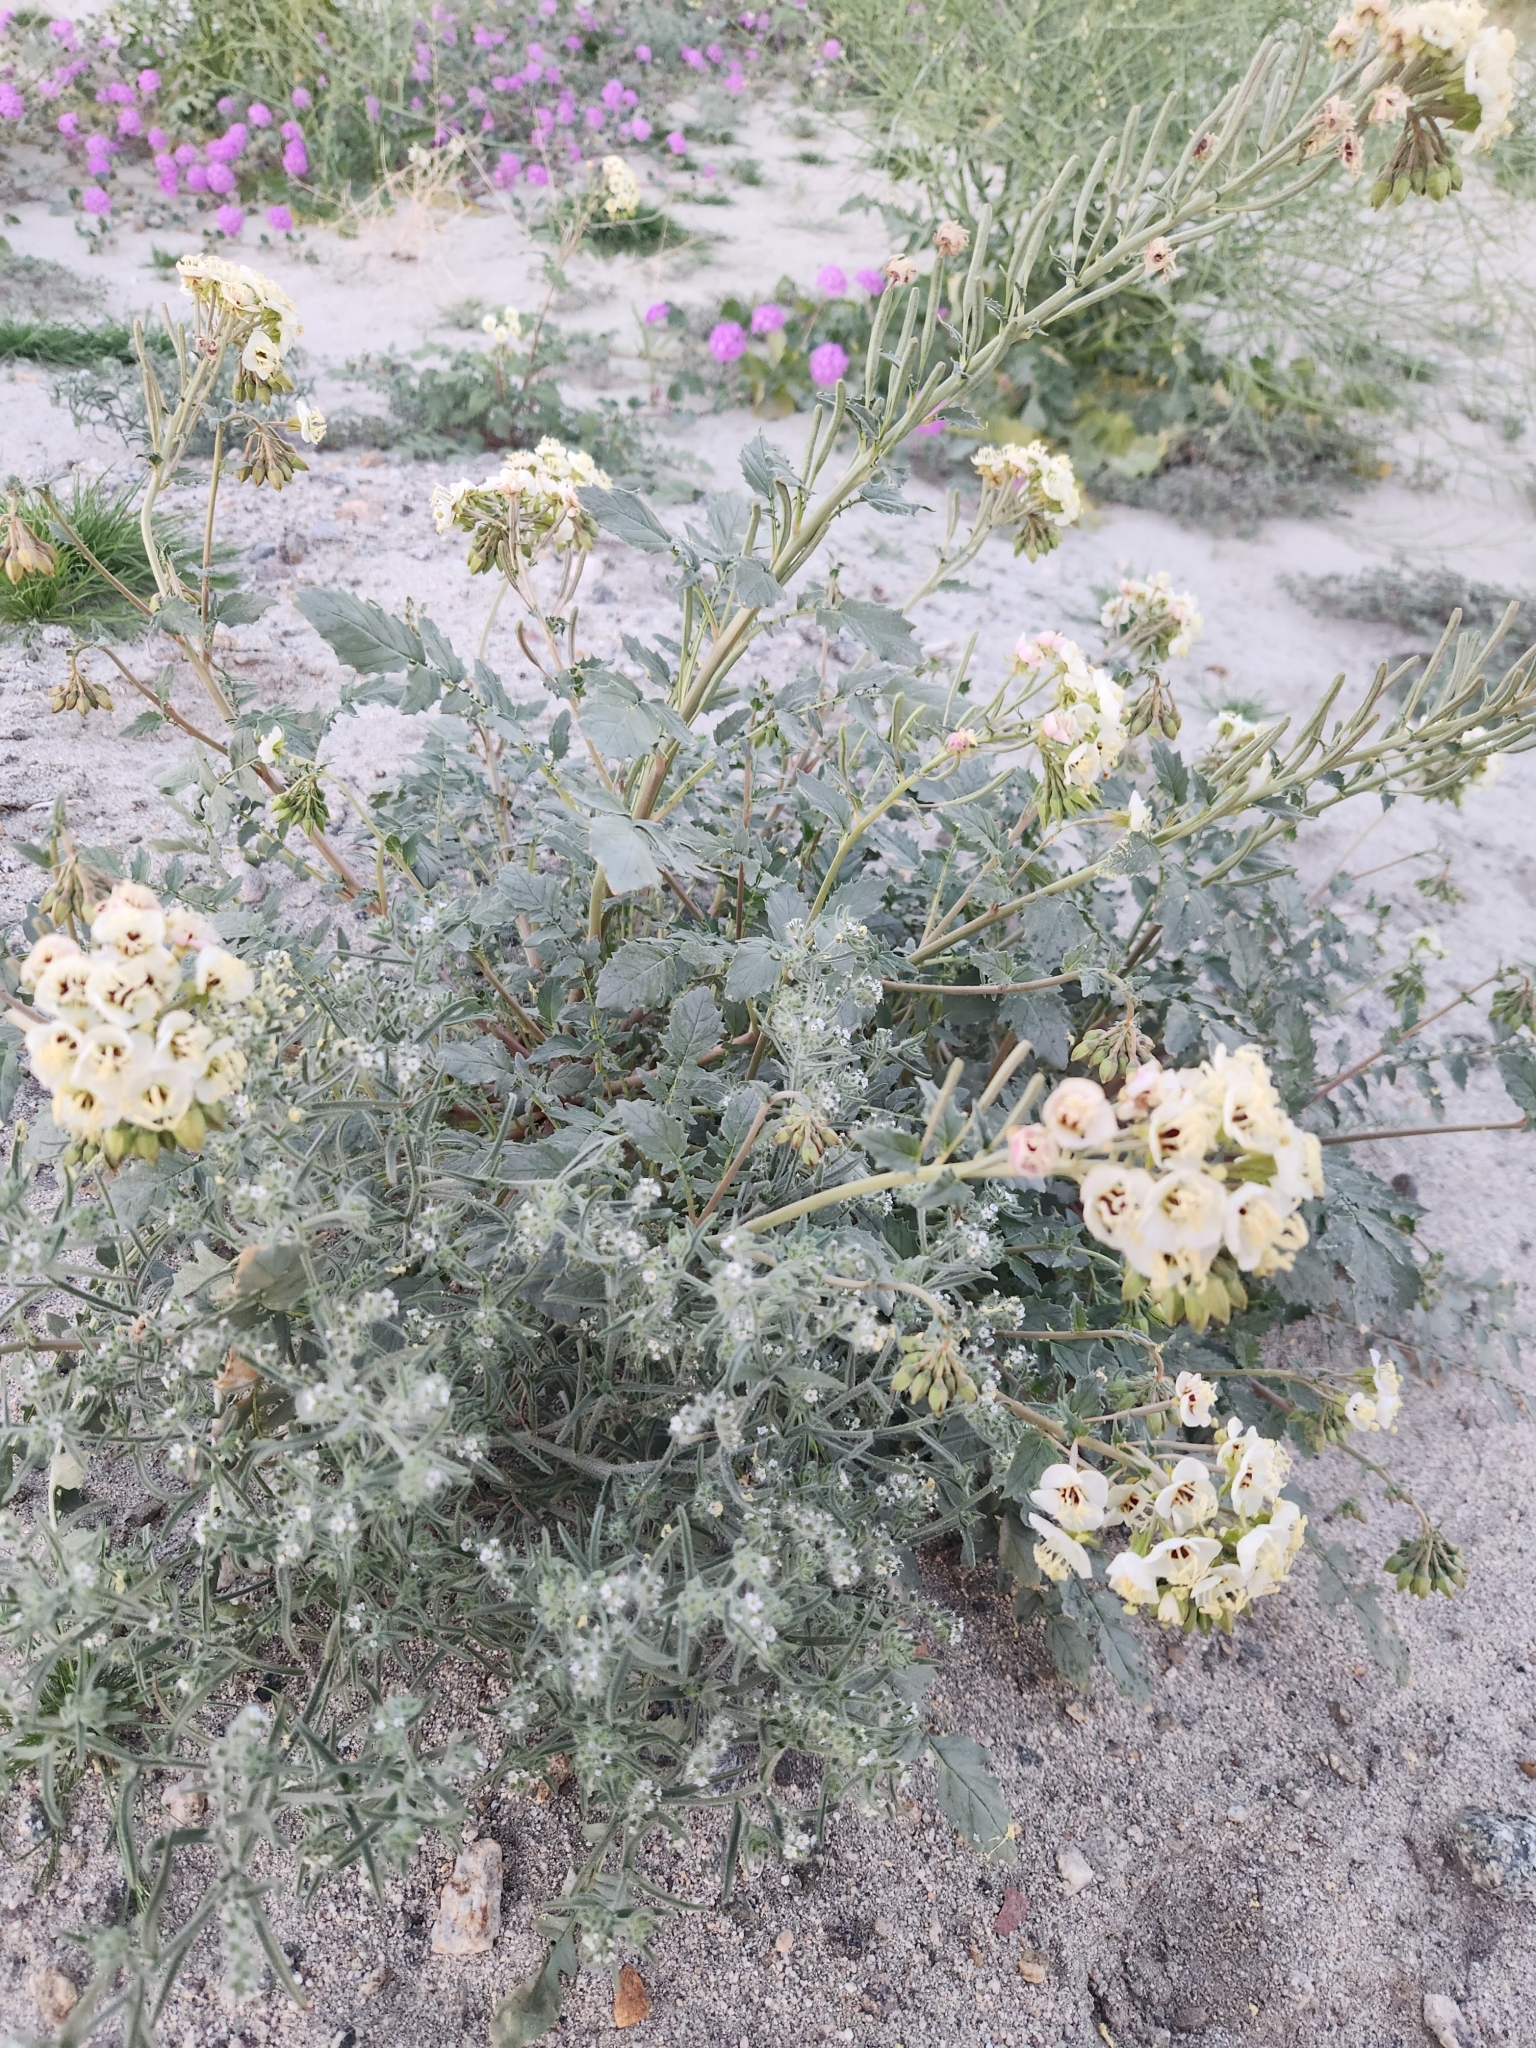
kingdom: Plantae
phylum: Tracheophyta
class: Magnoliopsida
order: Myrtales
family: Onagraceae
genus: Chylismia
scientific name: Chylismia claviformis
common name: Browneyes
